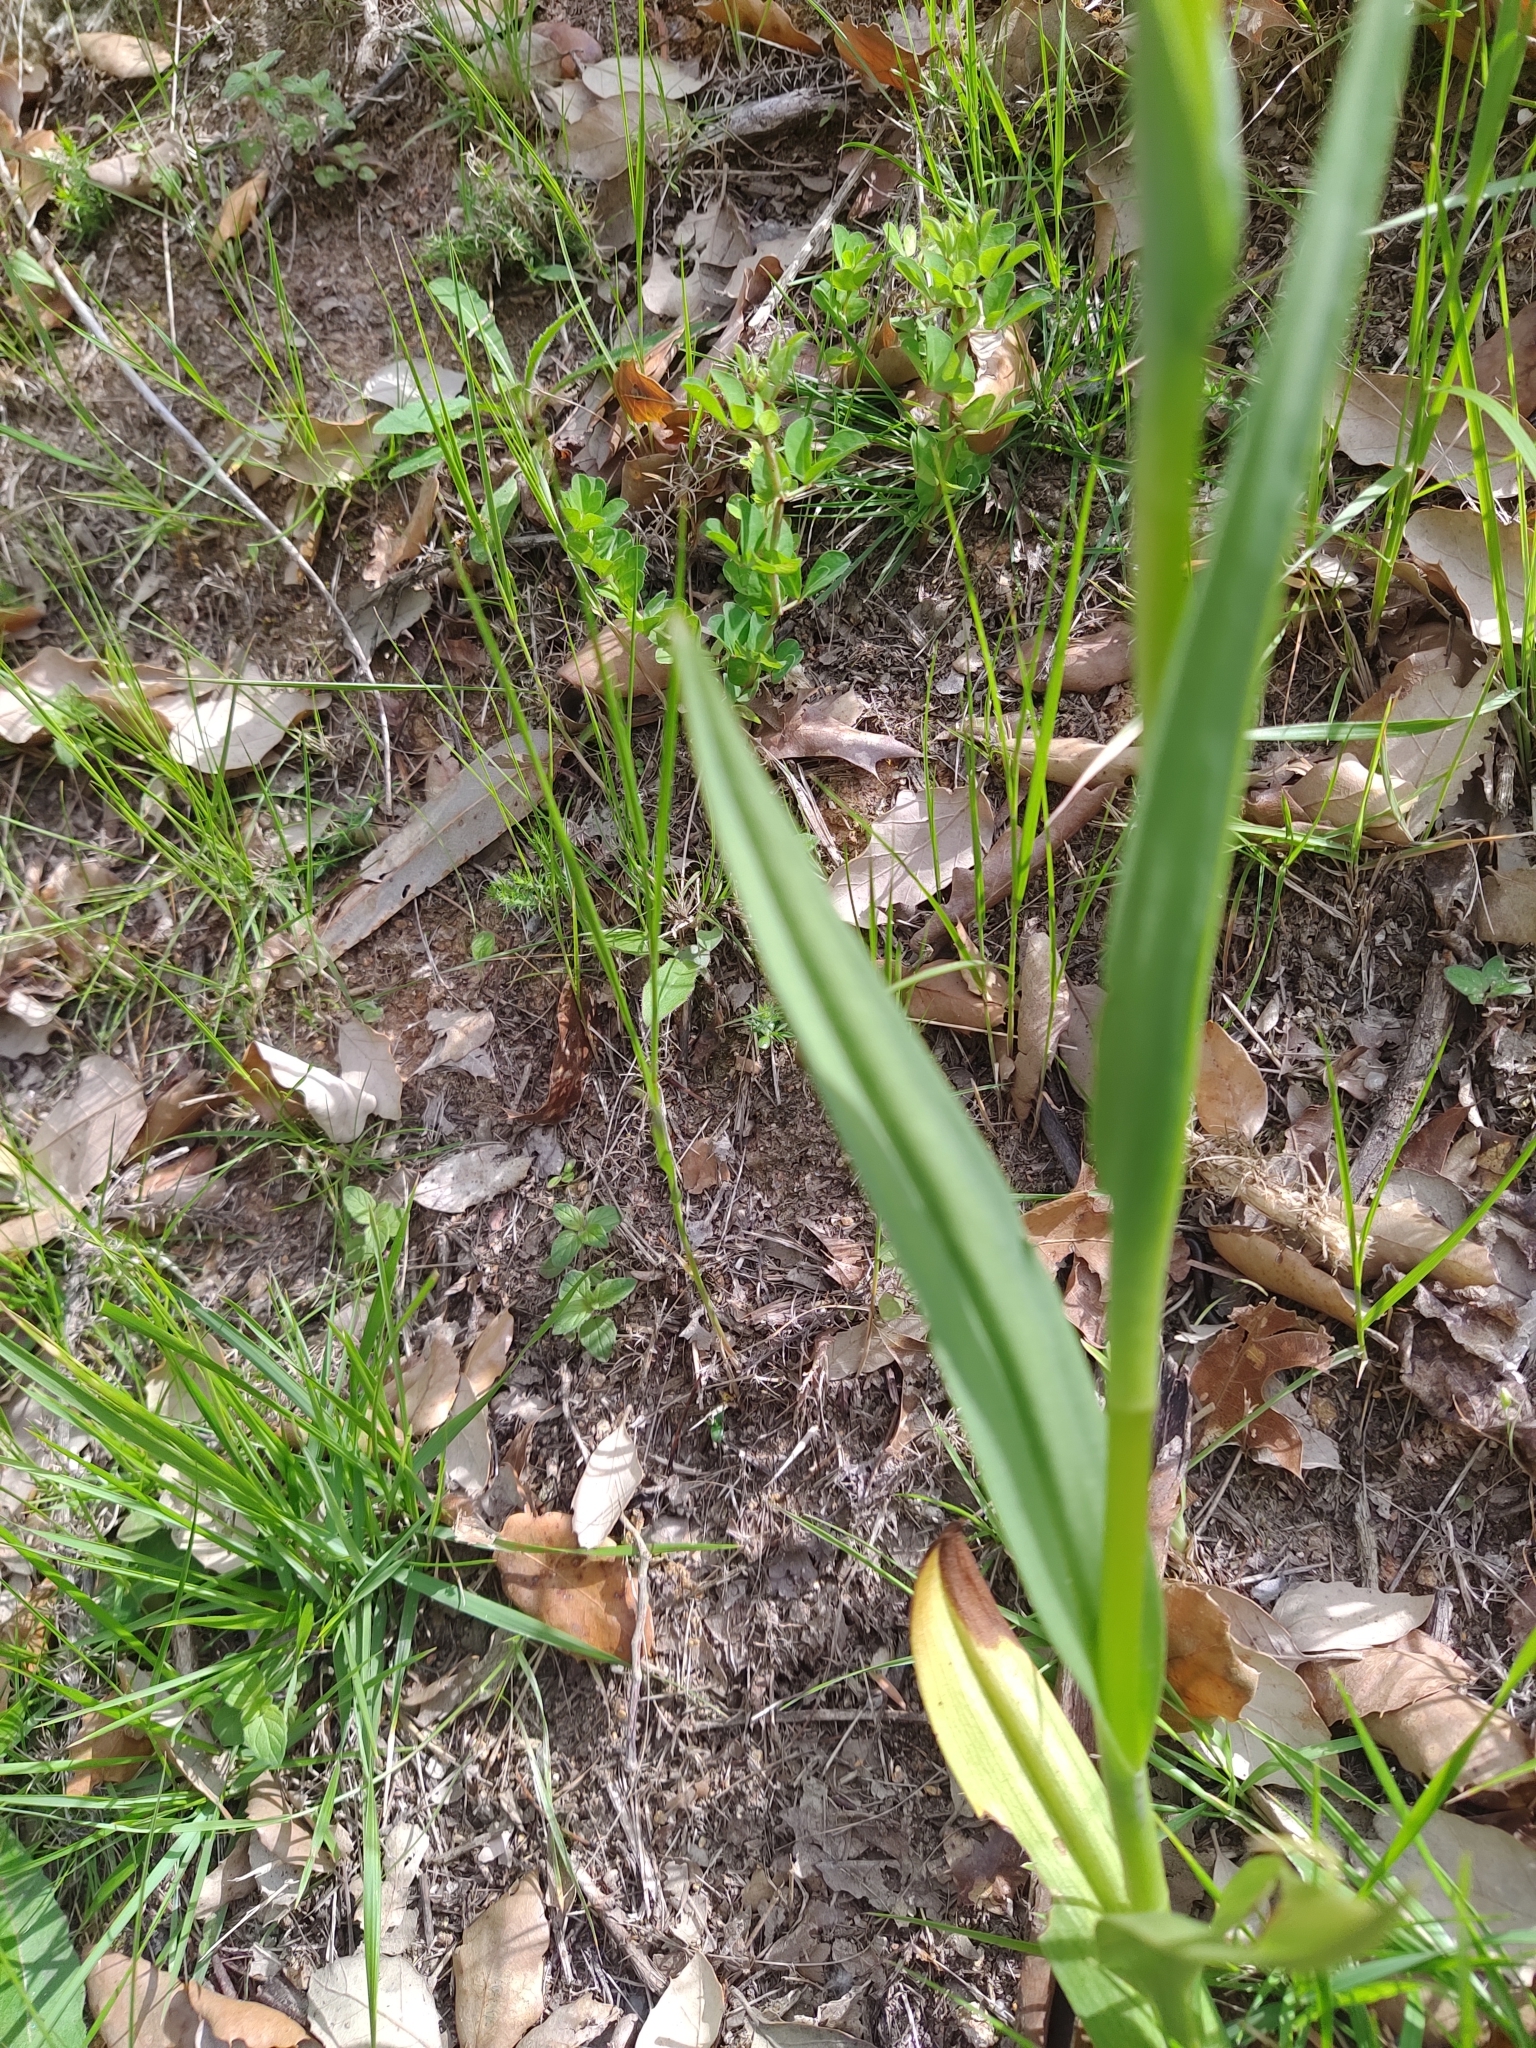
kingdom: Plantae
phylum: Tracheophyta
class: Liliopsida
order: Asparagales
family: Orchidaceae
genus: Dactylorhiza
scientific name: Dactylorhiza elata
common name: Stately dactylorhiza
